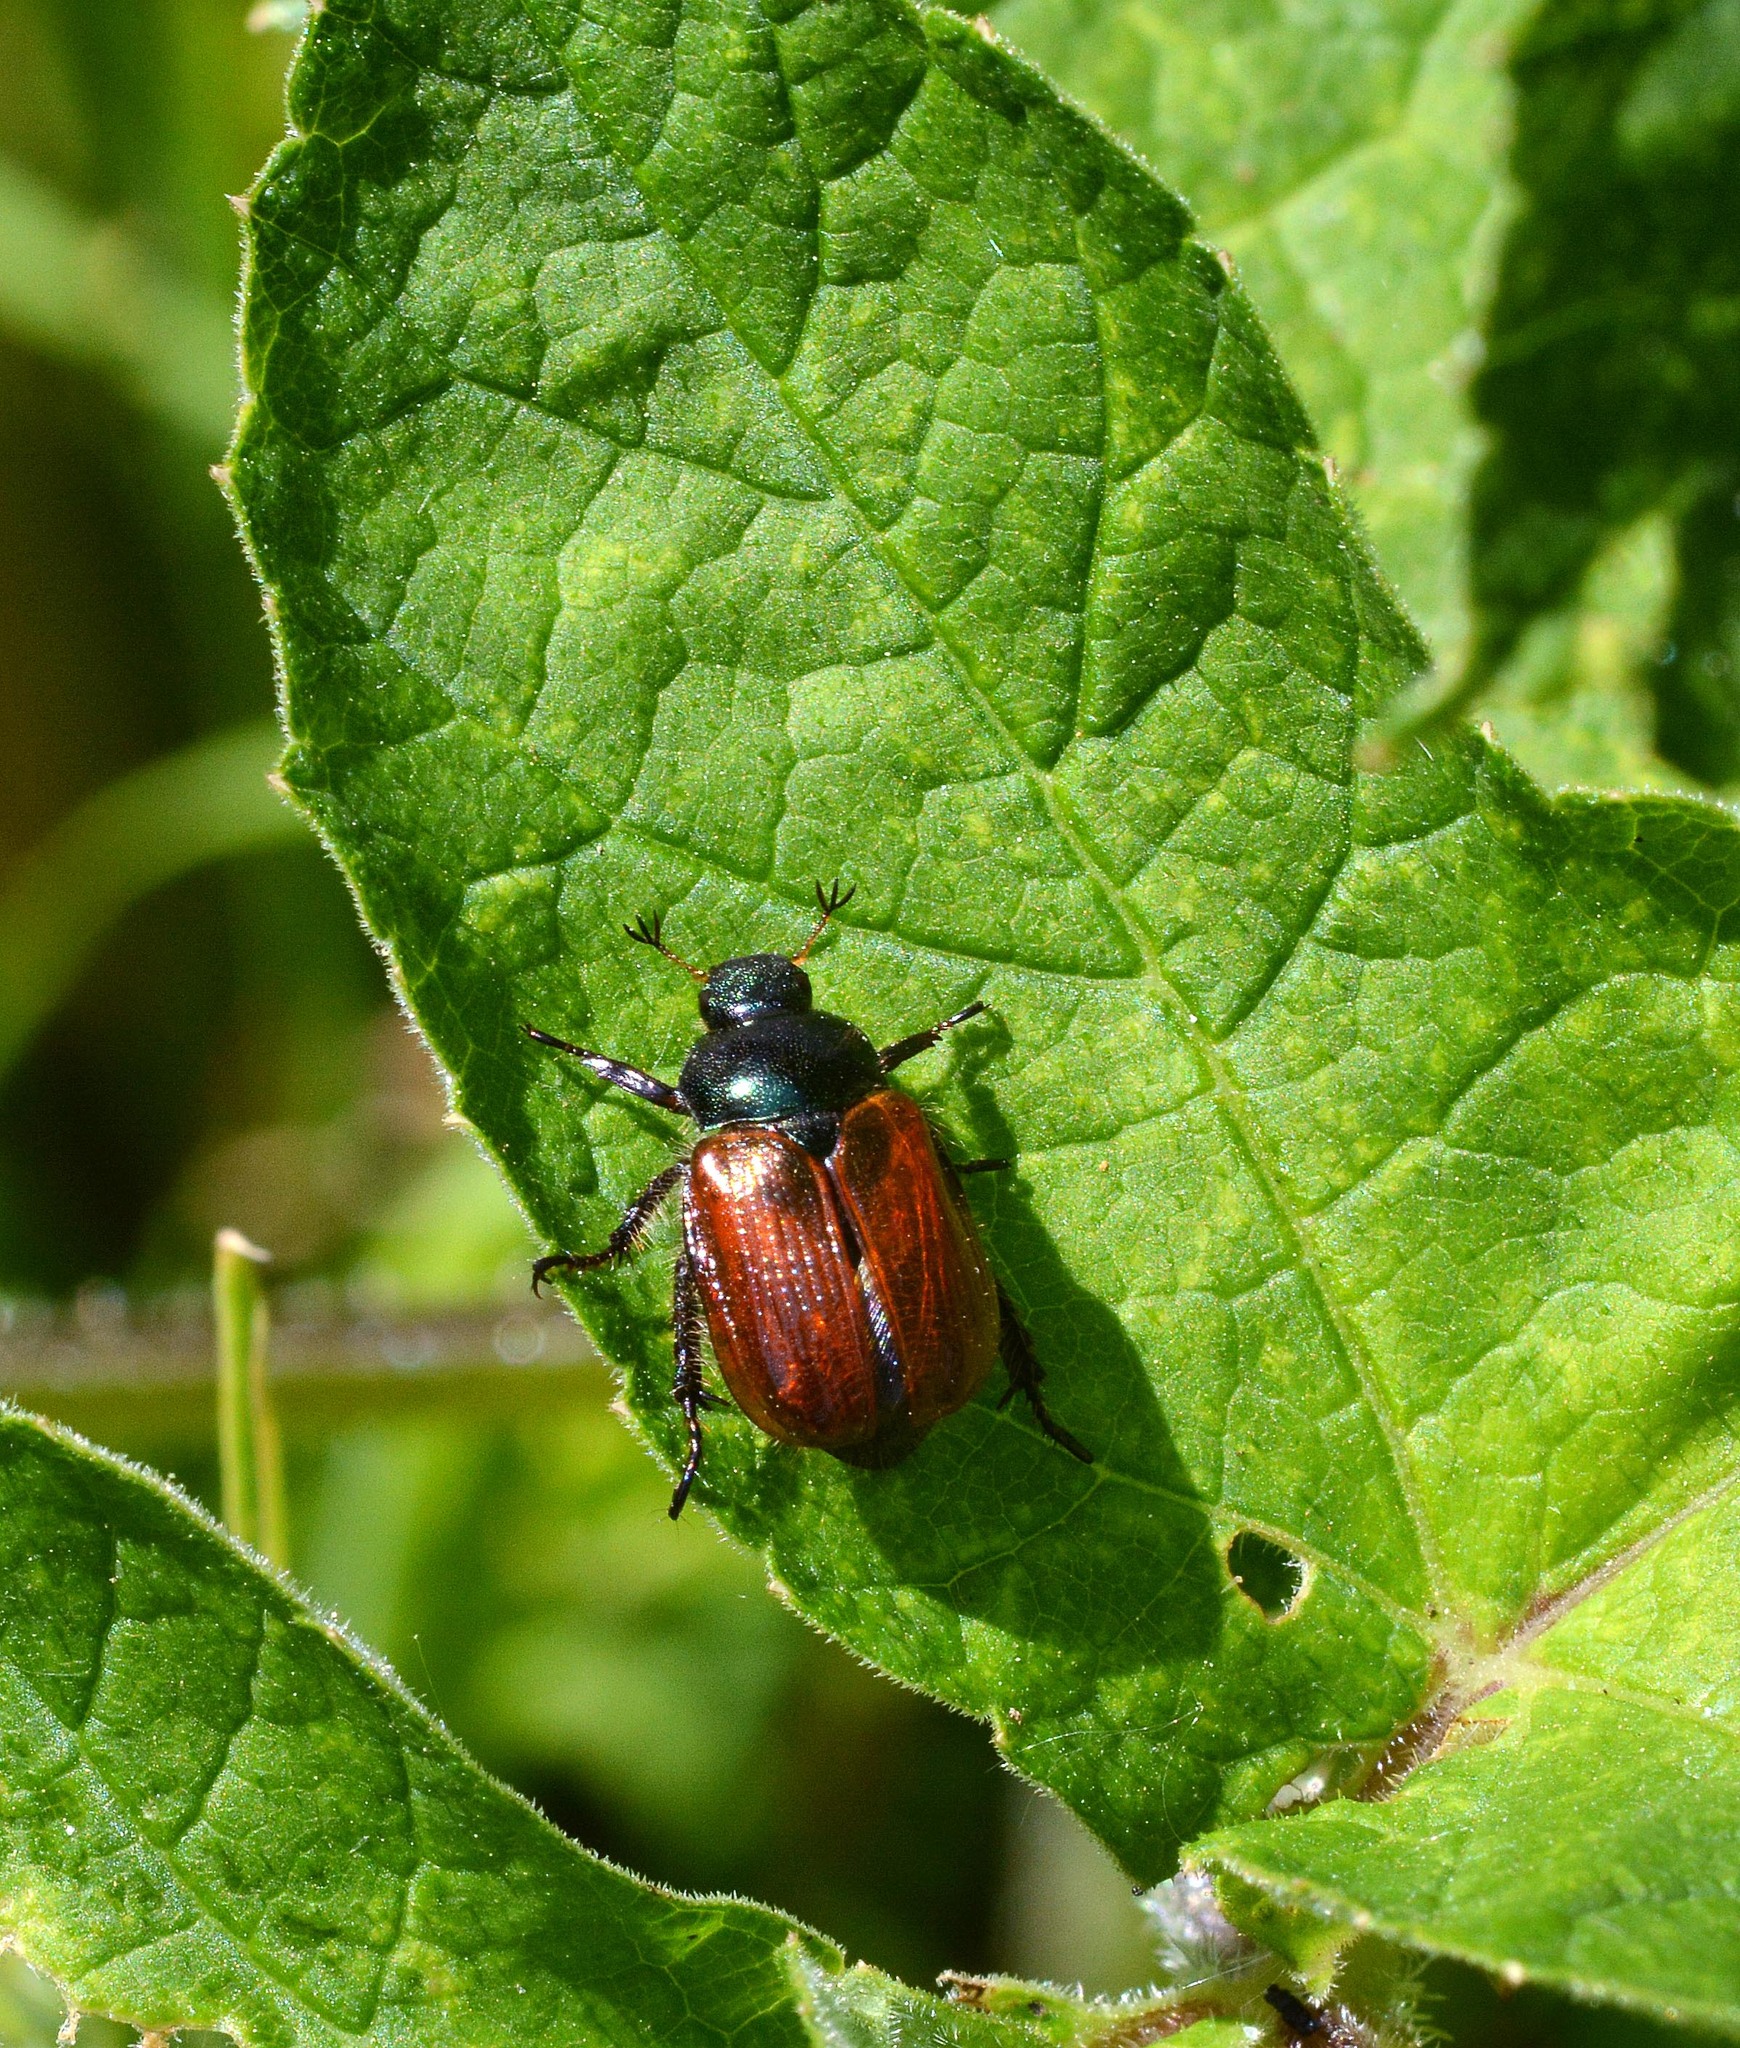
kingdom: Animalia
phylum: Arthropoda
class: Insecta
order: Coleoptera
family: Scarabaeidae
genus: Phyllopertha
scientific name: Phyllopertha horticola
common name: Garden chafer
